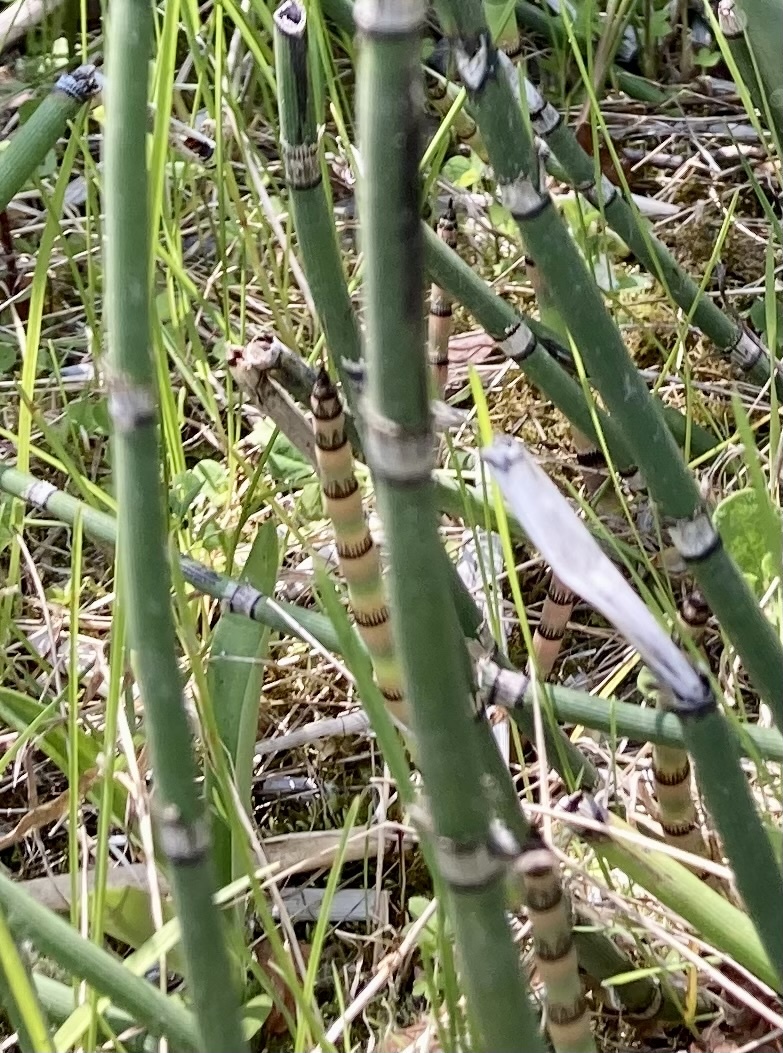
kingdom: Plantae
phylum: Tracheophyta
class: Polypodiopsida
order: Equisetales
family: Equisetaceae
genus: Equisetum
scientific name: Equisetum praealtum
